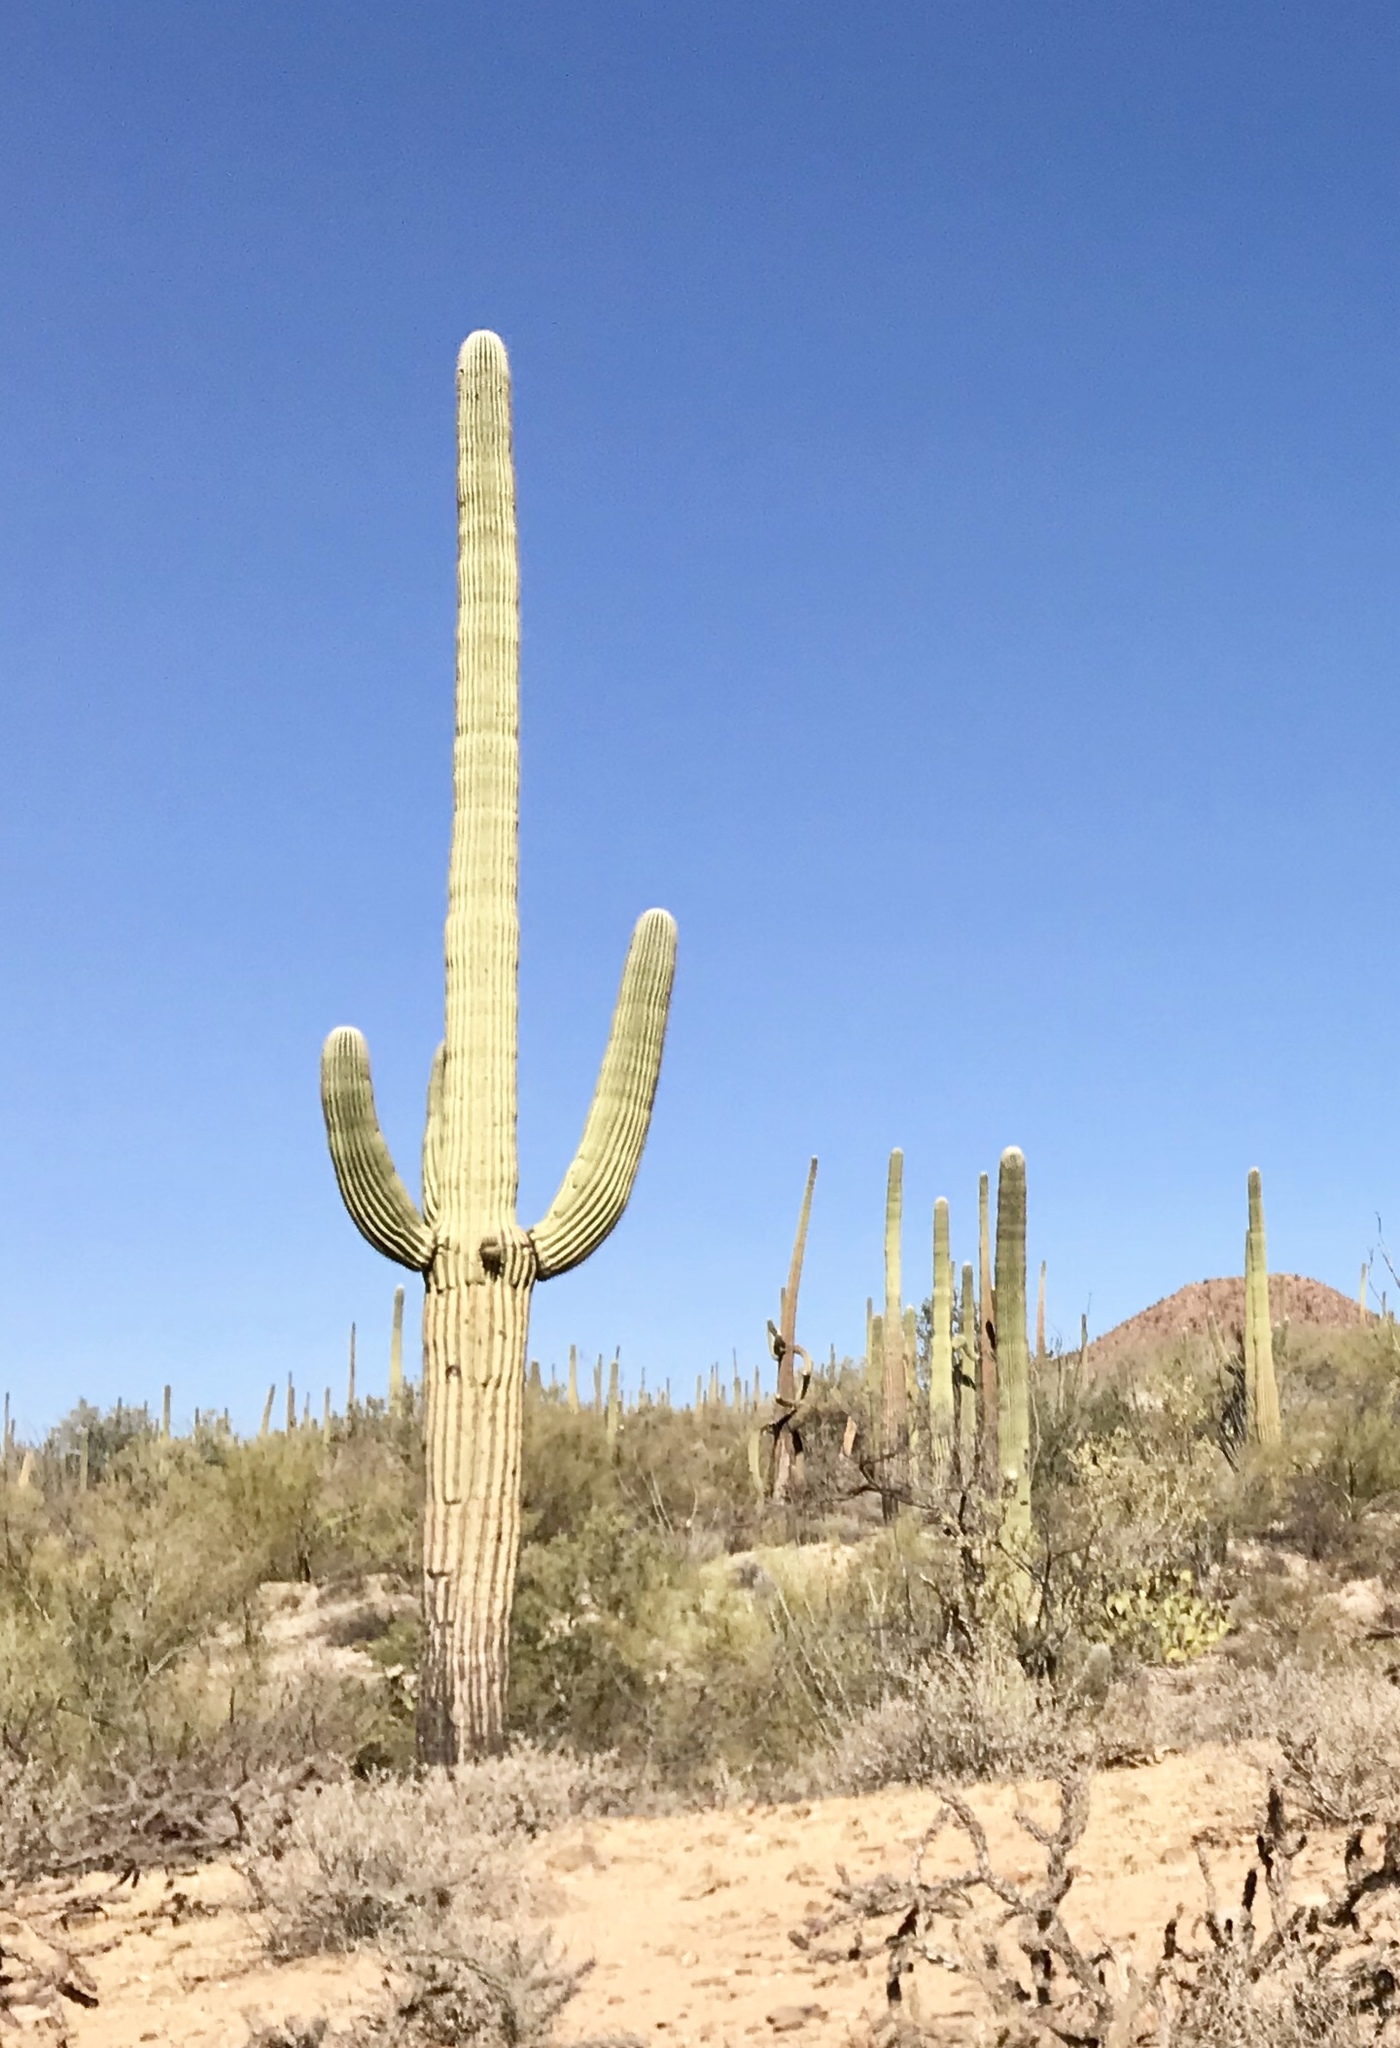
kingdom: Plantae
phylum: Tracheophyta
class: Magnoliopsida
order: Caryophyllales
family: Cactaceae
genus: Carnegiea
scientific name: Carnegiea gigantea
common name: Saguaro
